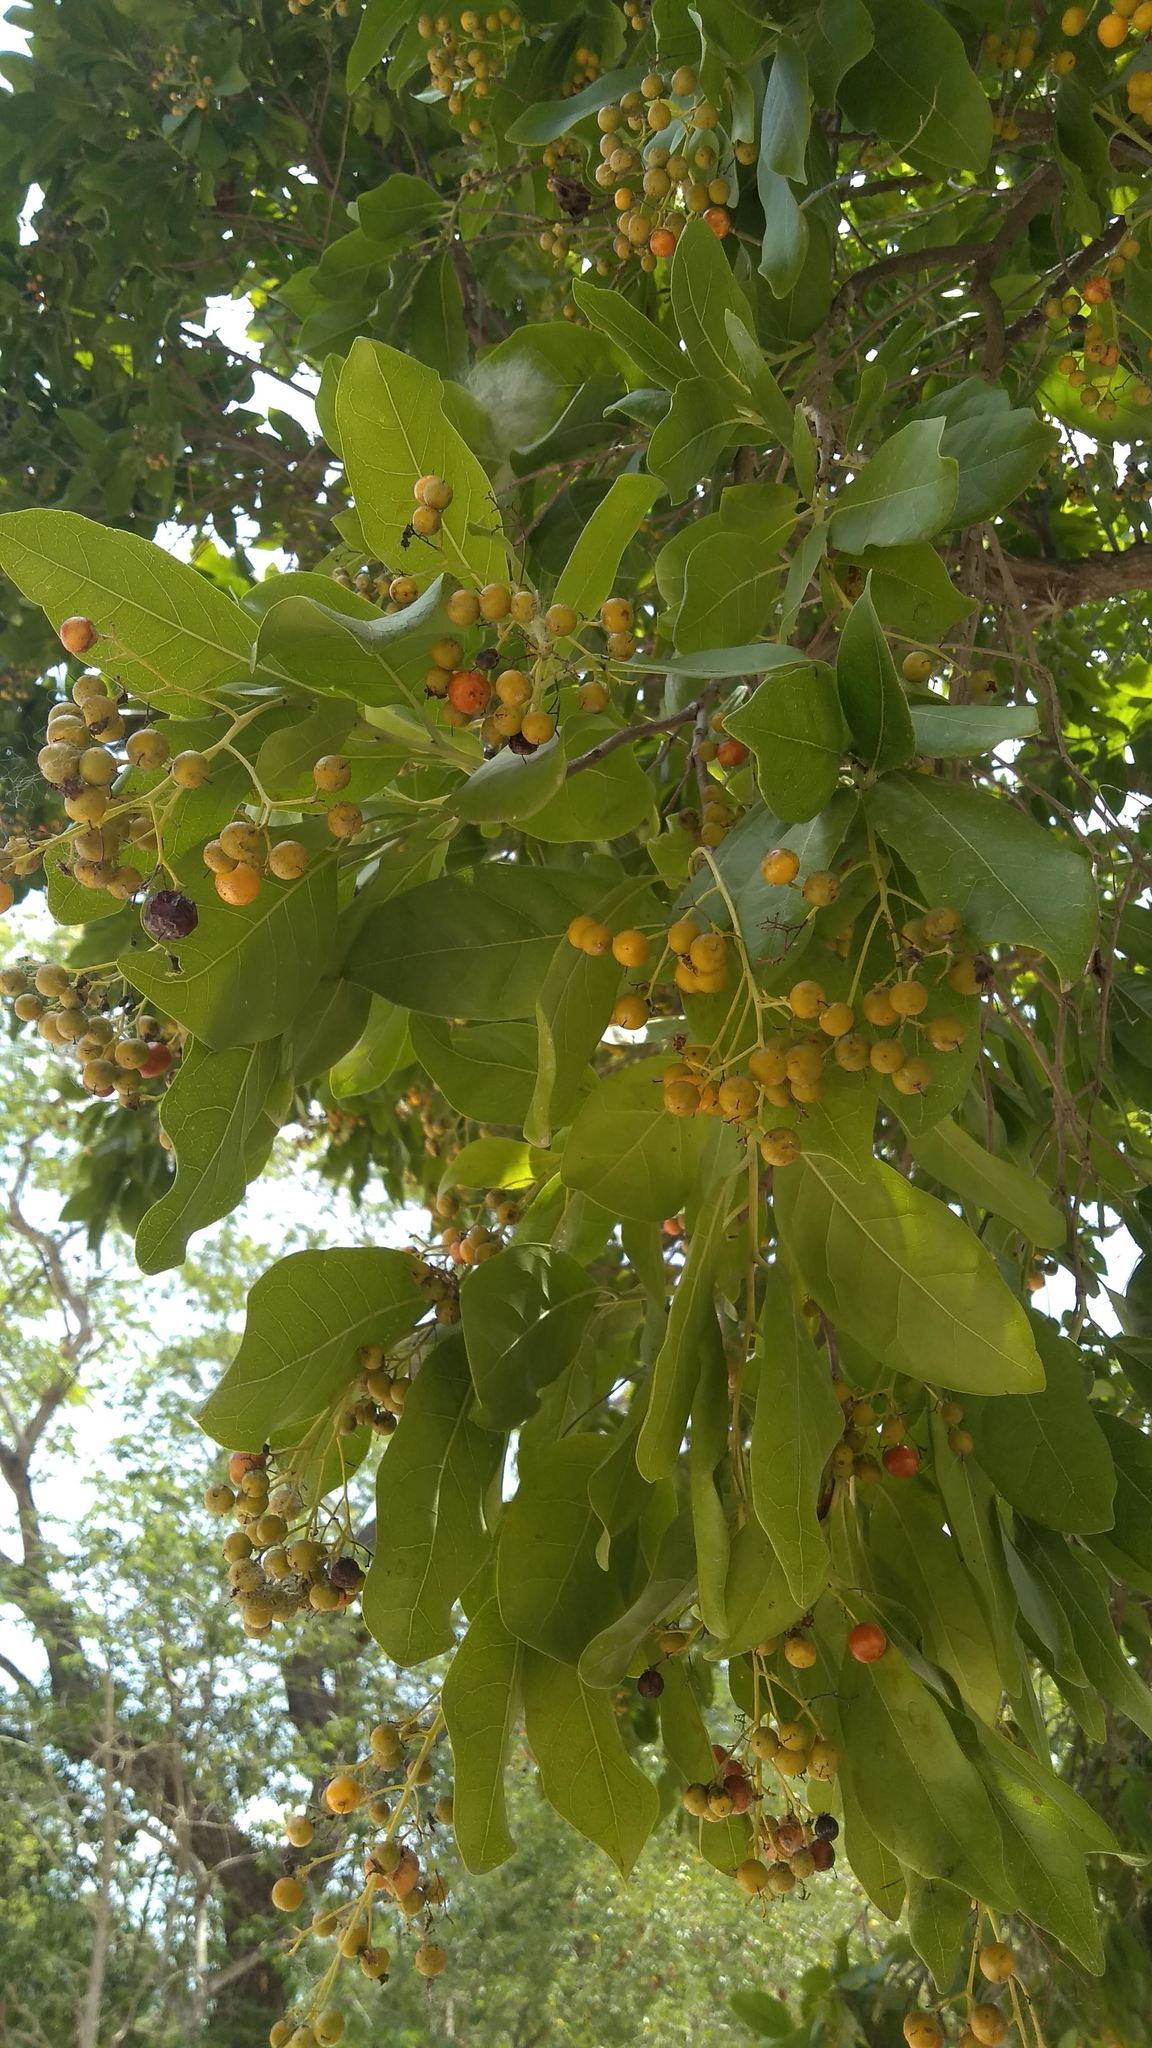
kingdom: Plantae
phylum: Tracheophyta
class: Magnoliopsida
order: Boraginales
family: Ehretiaceae
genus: Ehretia
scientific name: Ehretia tinifolia
